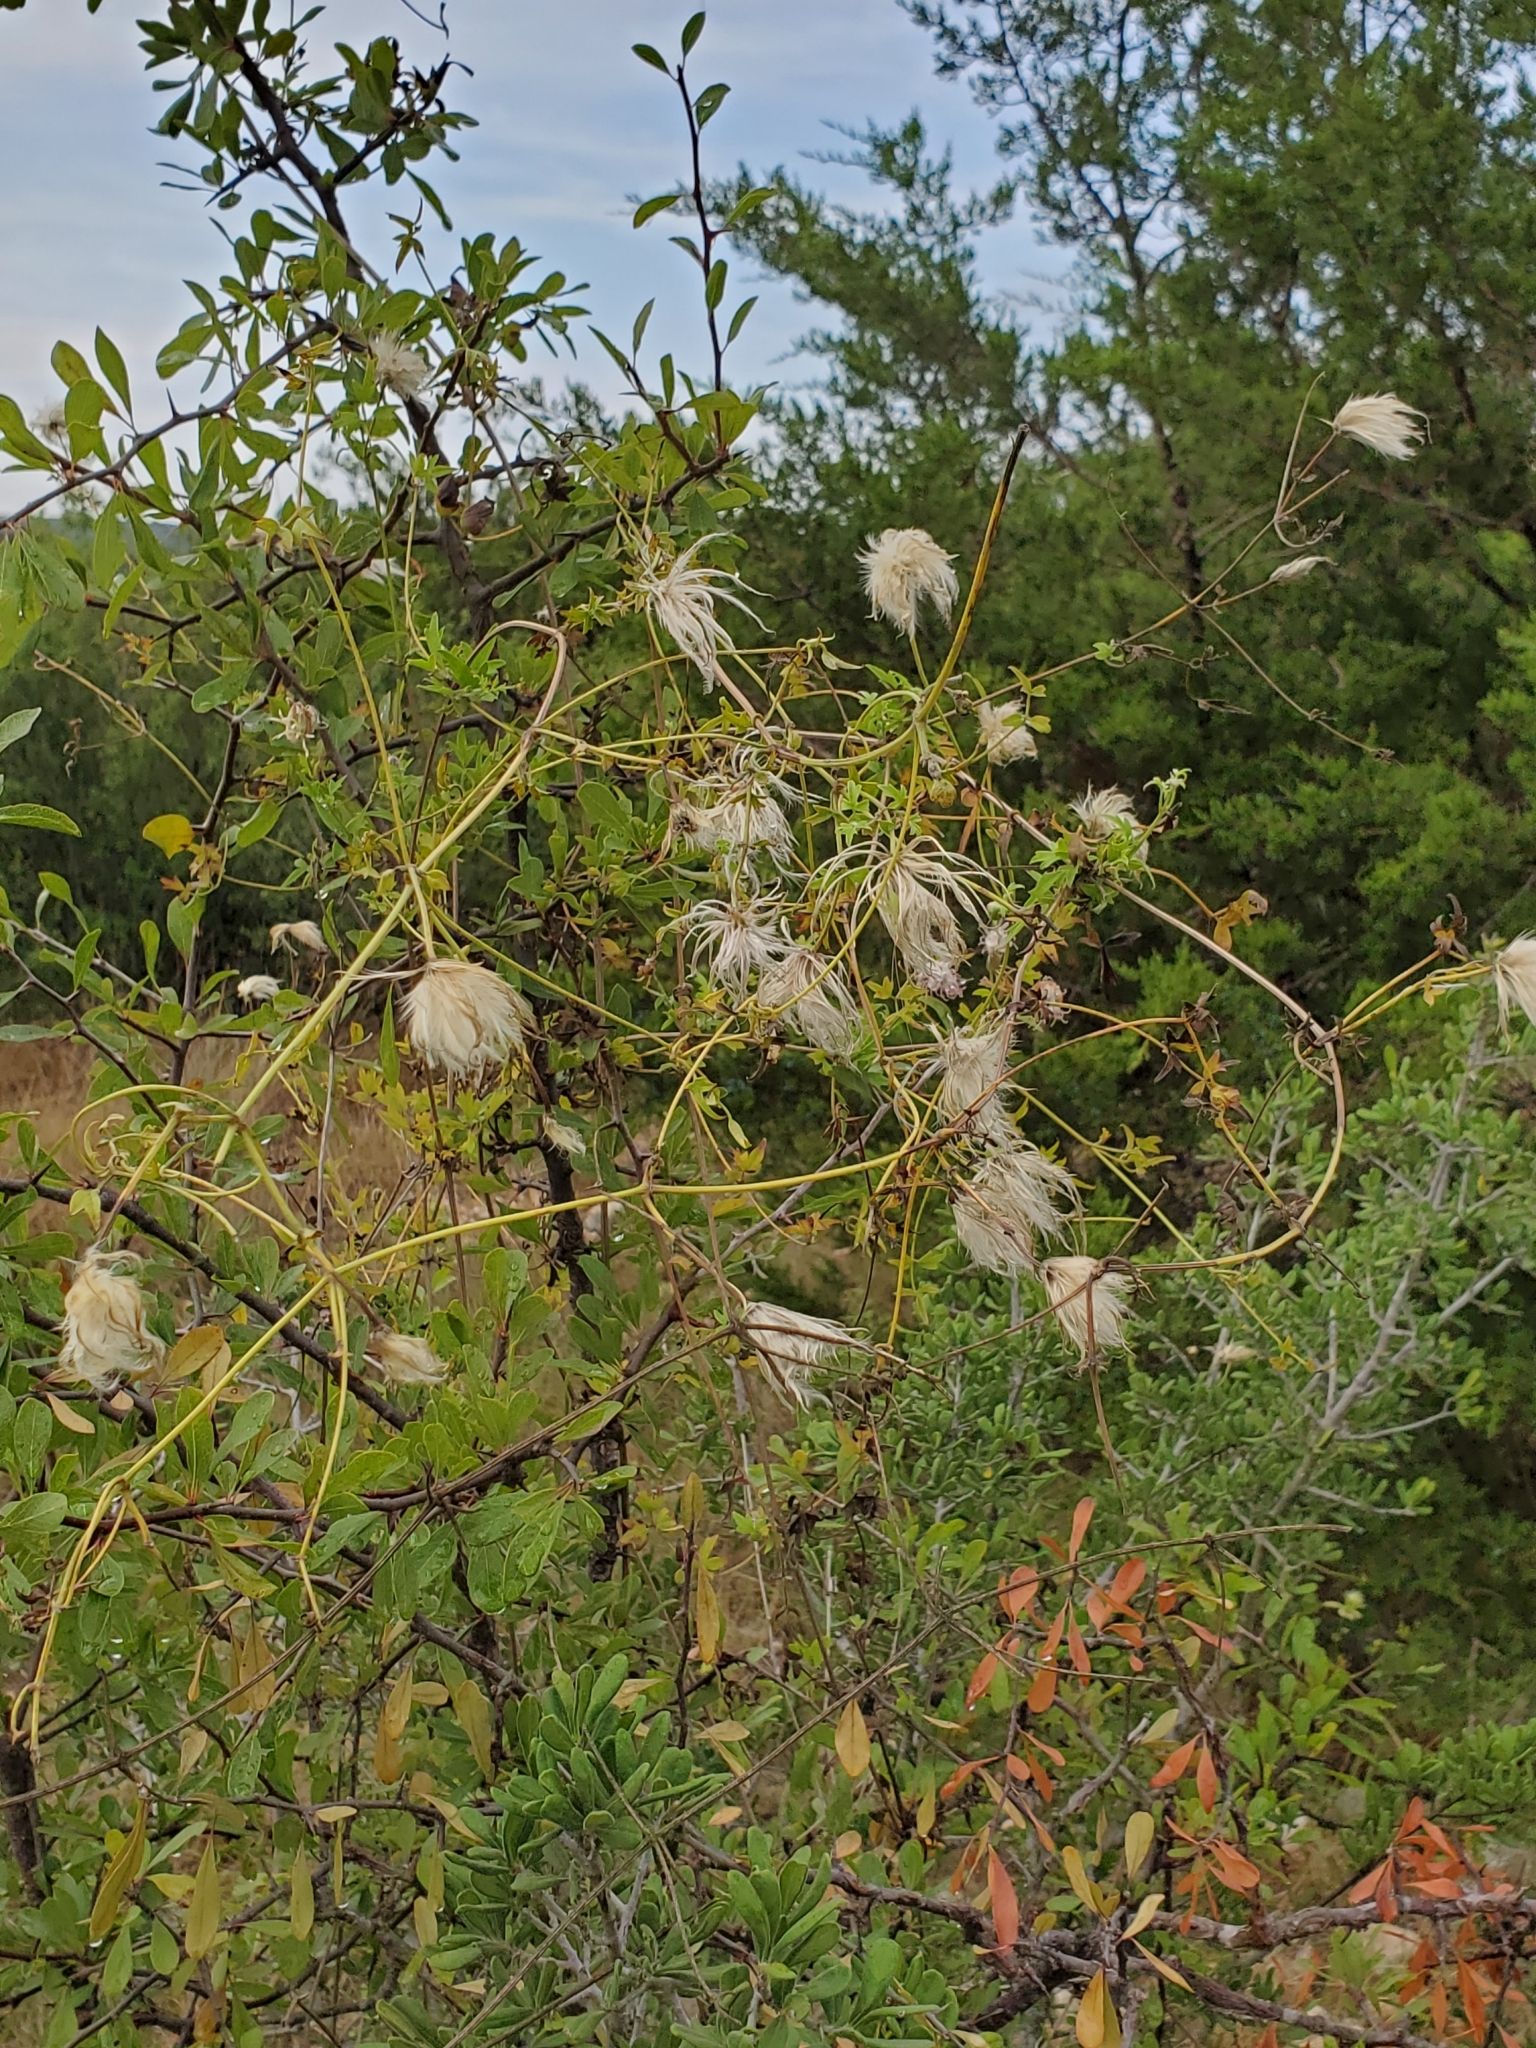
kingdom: Plantae
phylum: Tracheophyta
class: Magnoliopsida
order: Ranunculales
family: Ranunculaceae
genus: Clematis
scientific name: Clematis drummondii
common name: Texas virgin's bower
